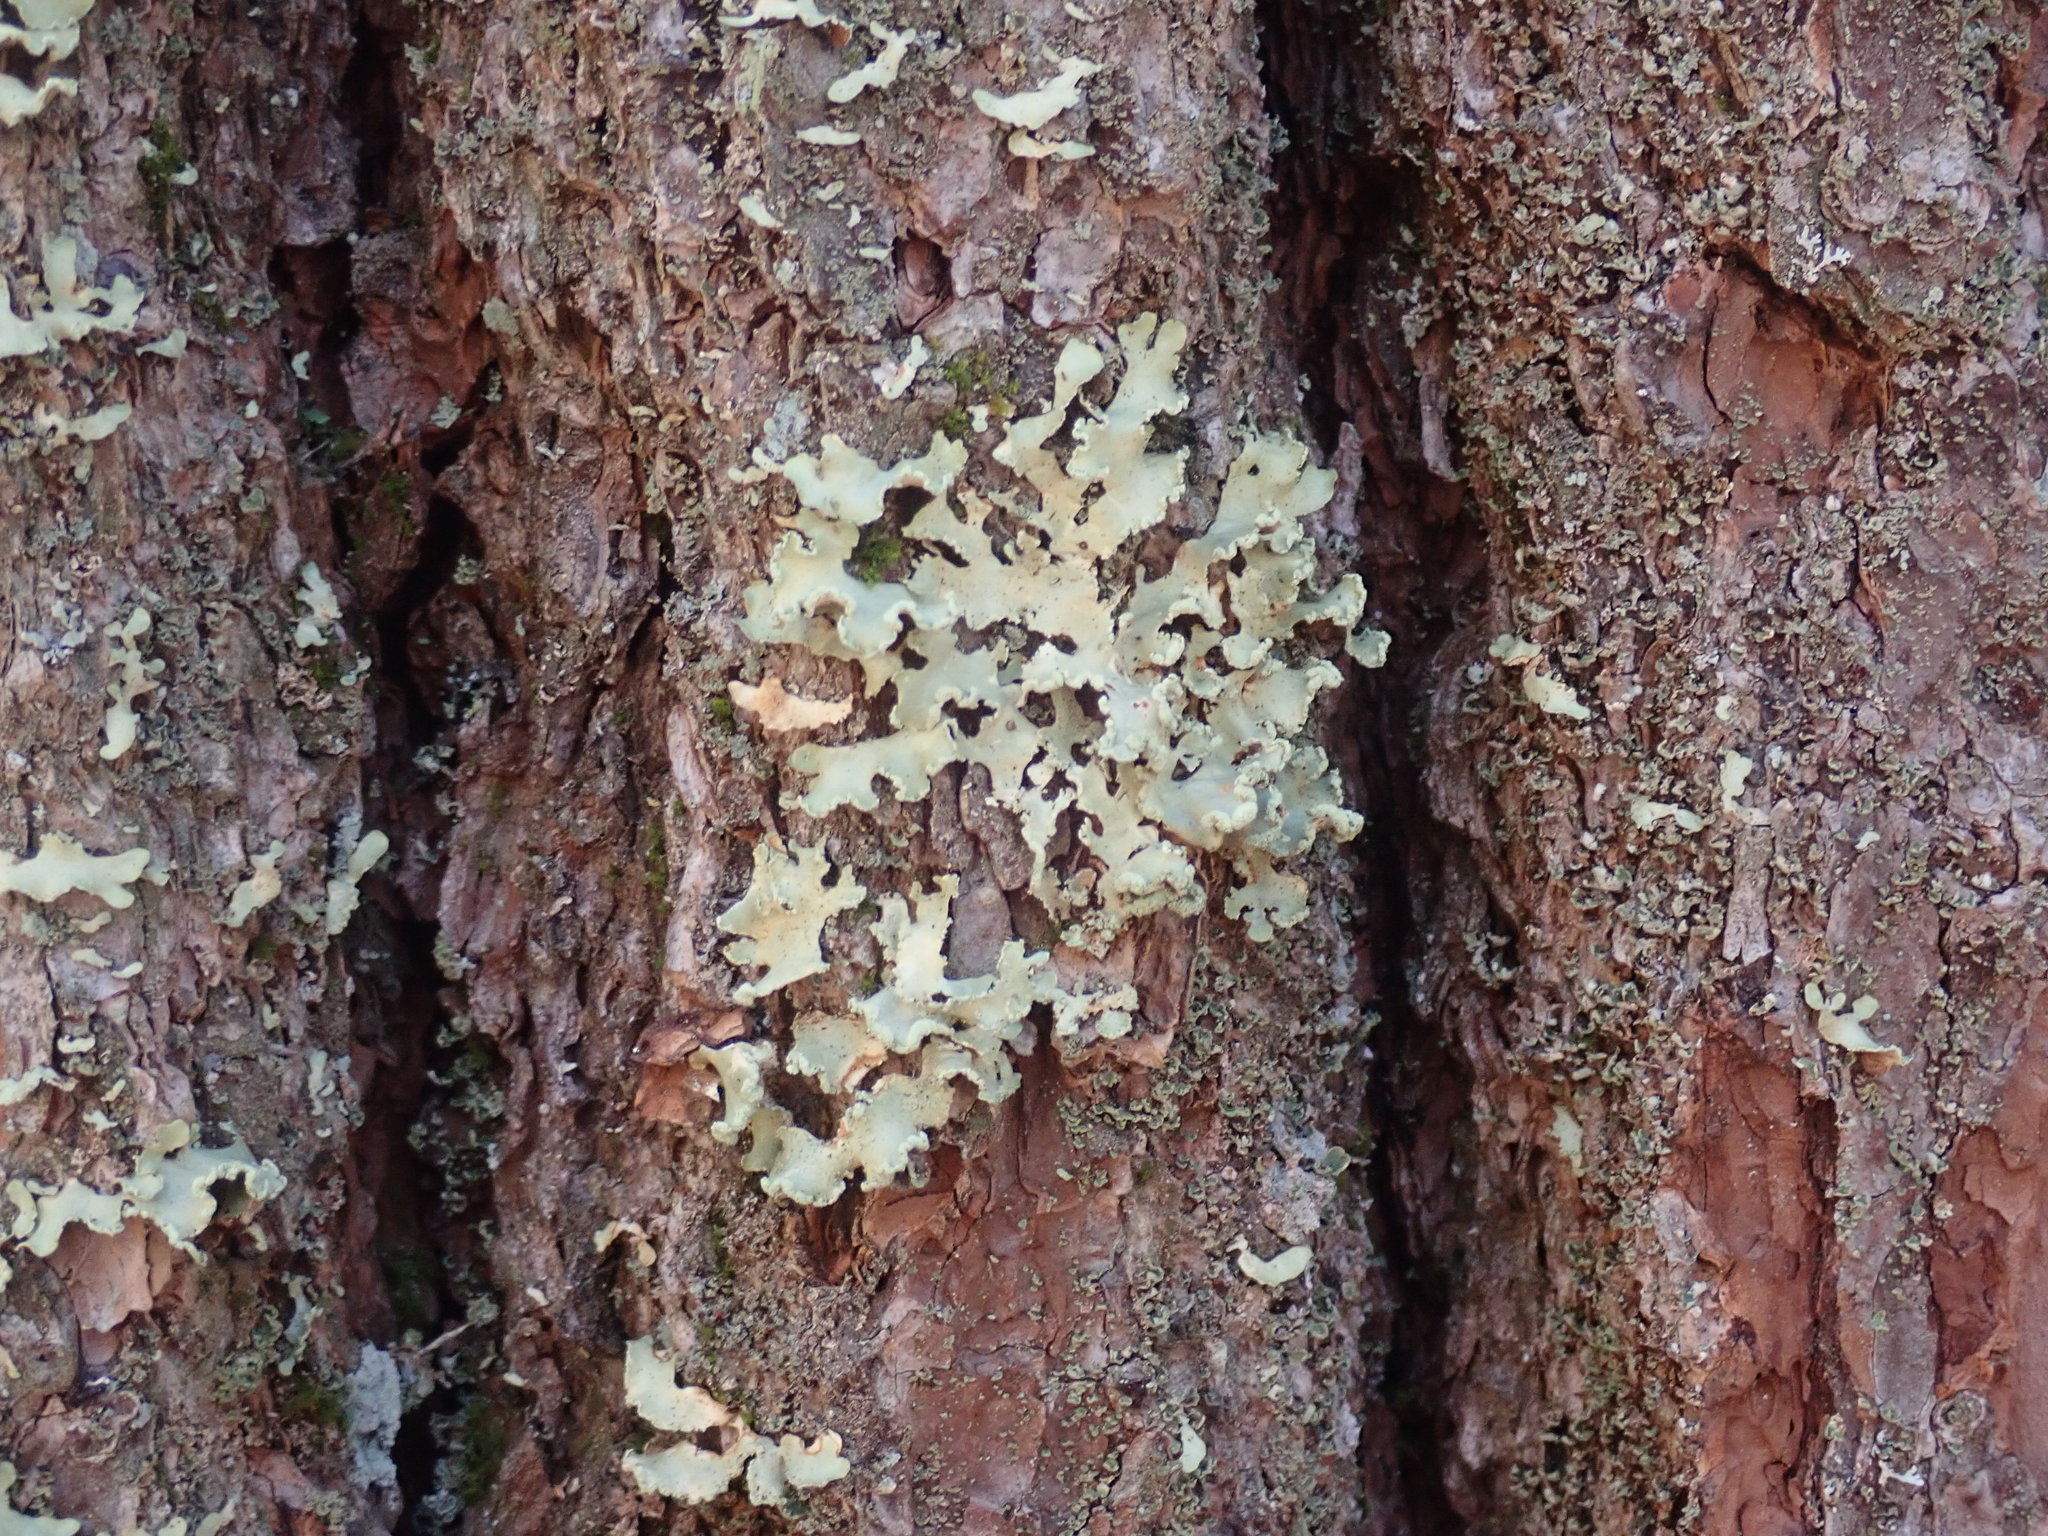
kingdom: Fungi
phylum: Ascomycota
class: Lecanoromycetes
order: Lecanorales
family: Parmeliaceae
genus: Usnocetraria
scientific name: Usnocetraria oakesiana
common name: Yellow ribbon lichen
